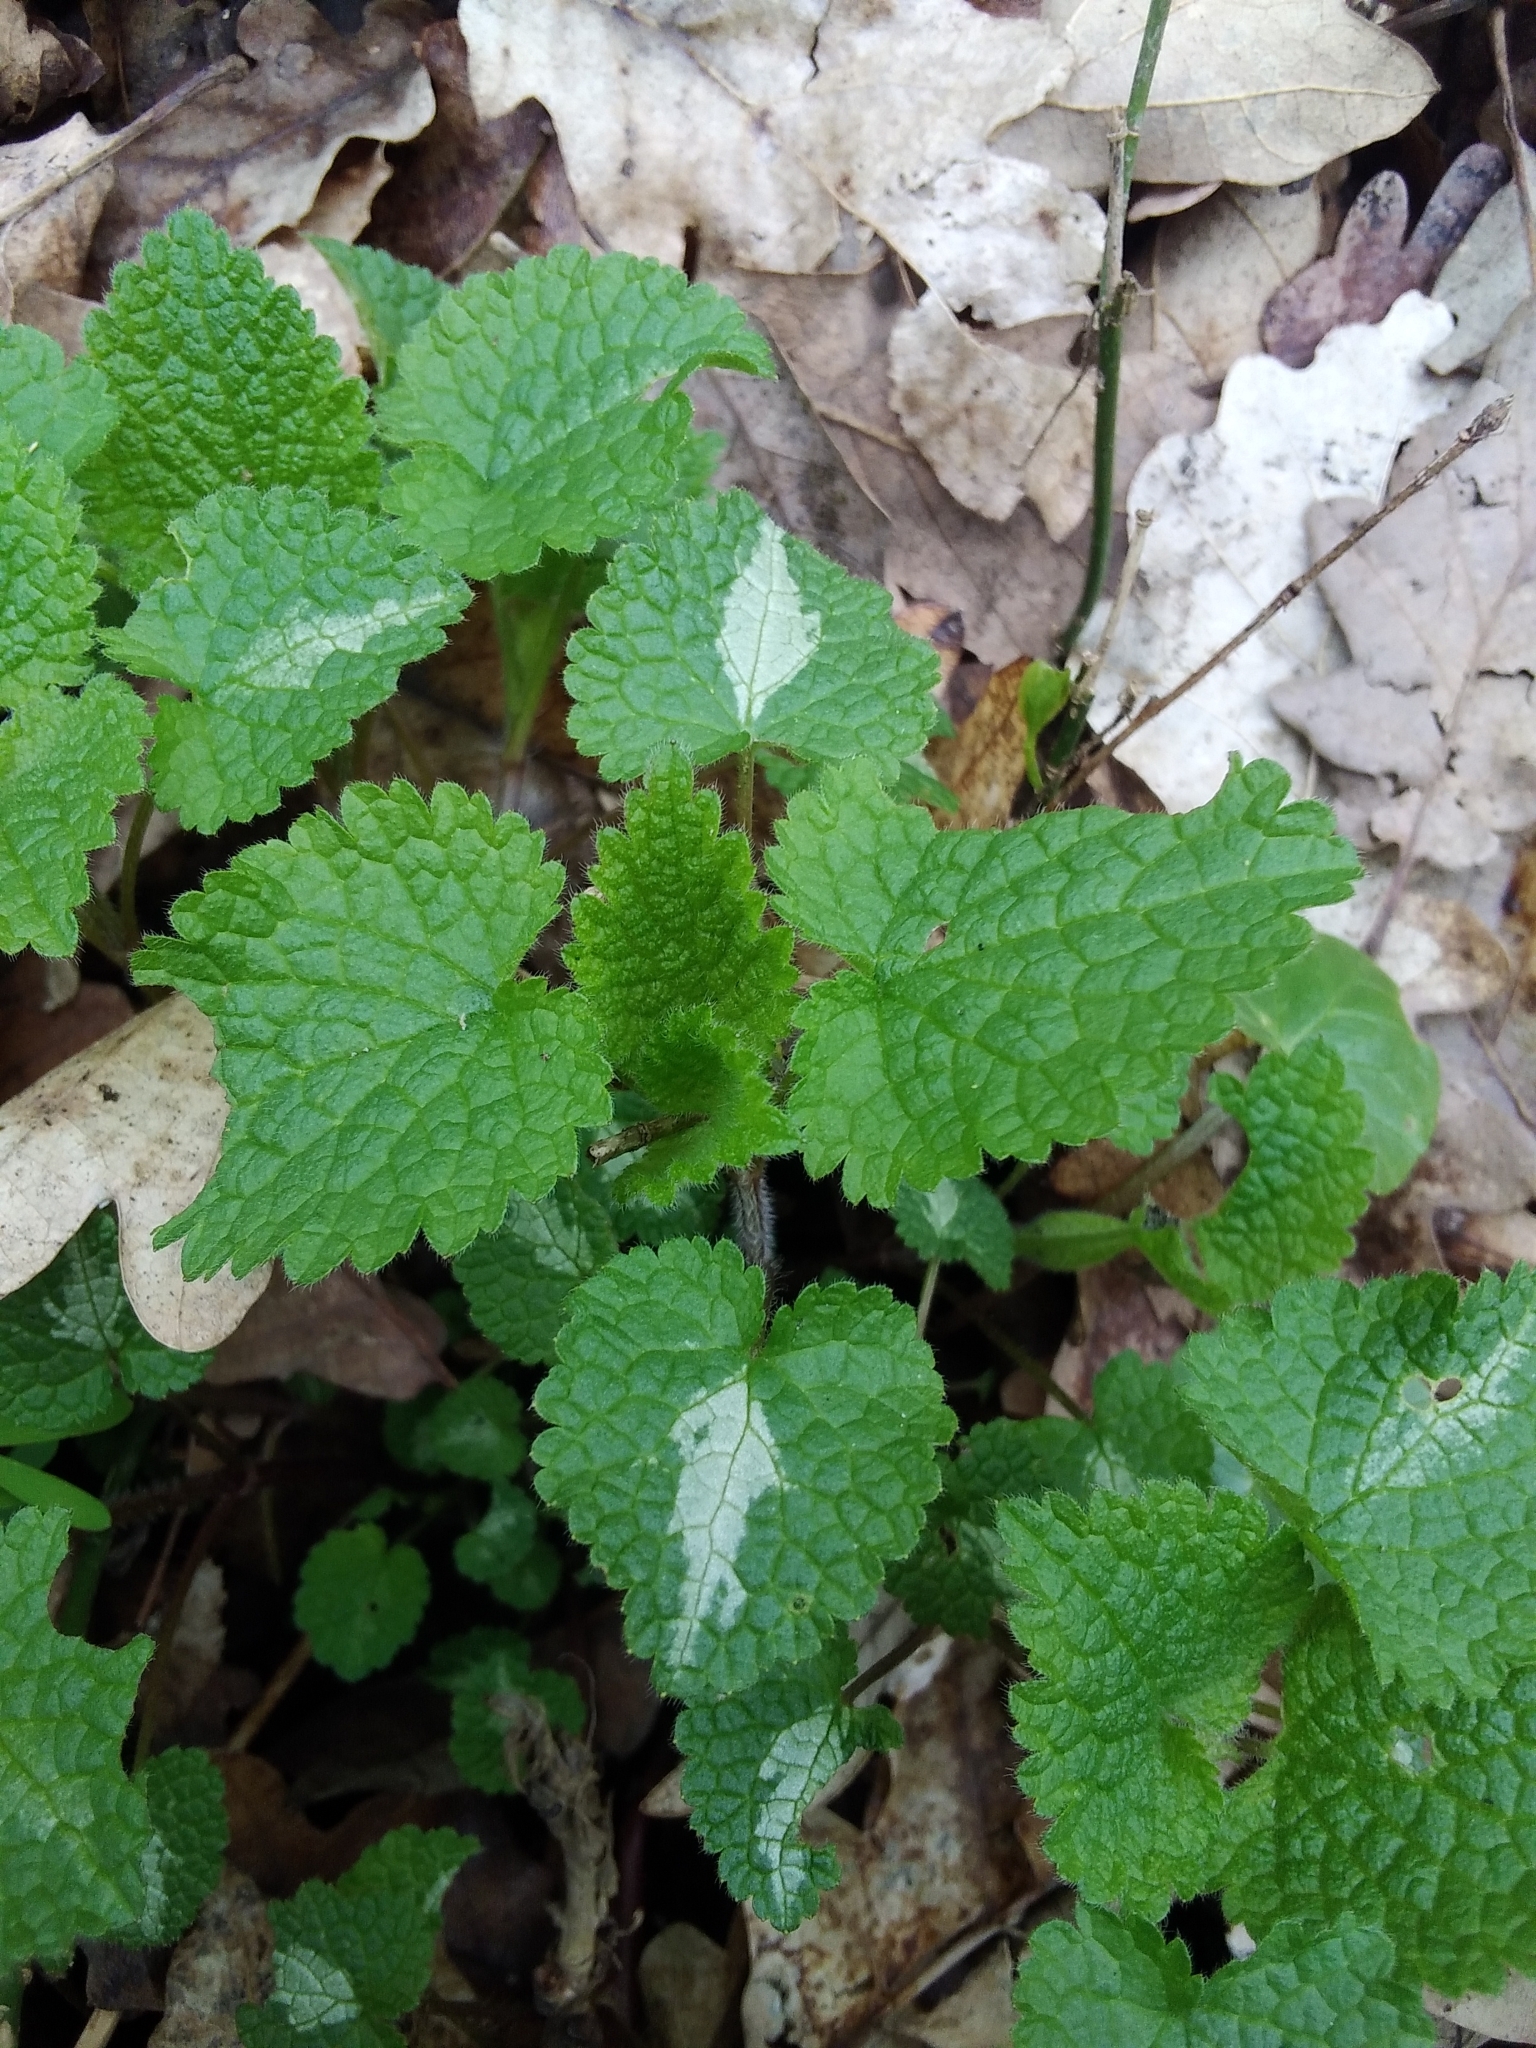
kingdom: Plantae
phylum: Tracheophyta
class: Magnoliopsida
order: Lamiales
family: Lamiaceae
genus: Lamium
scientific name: Lamium maculatum
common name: Spotted dead-nettle
